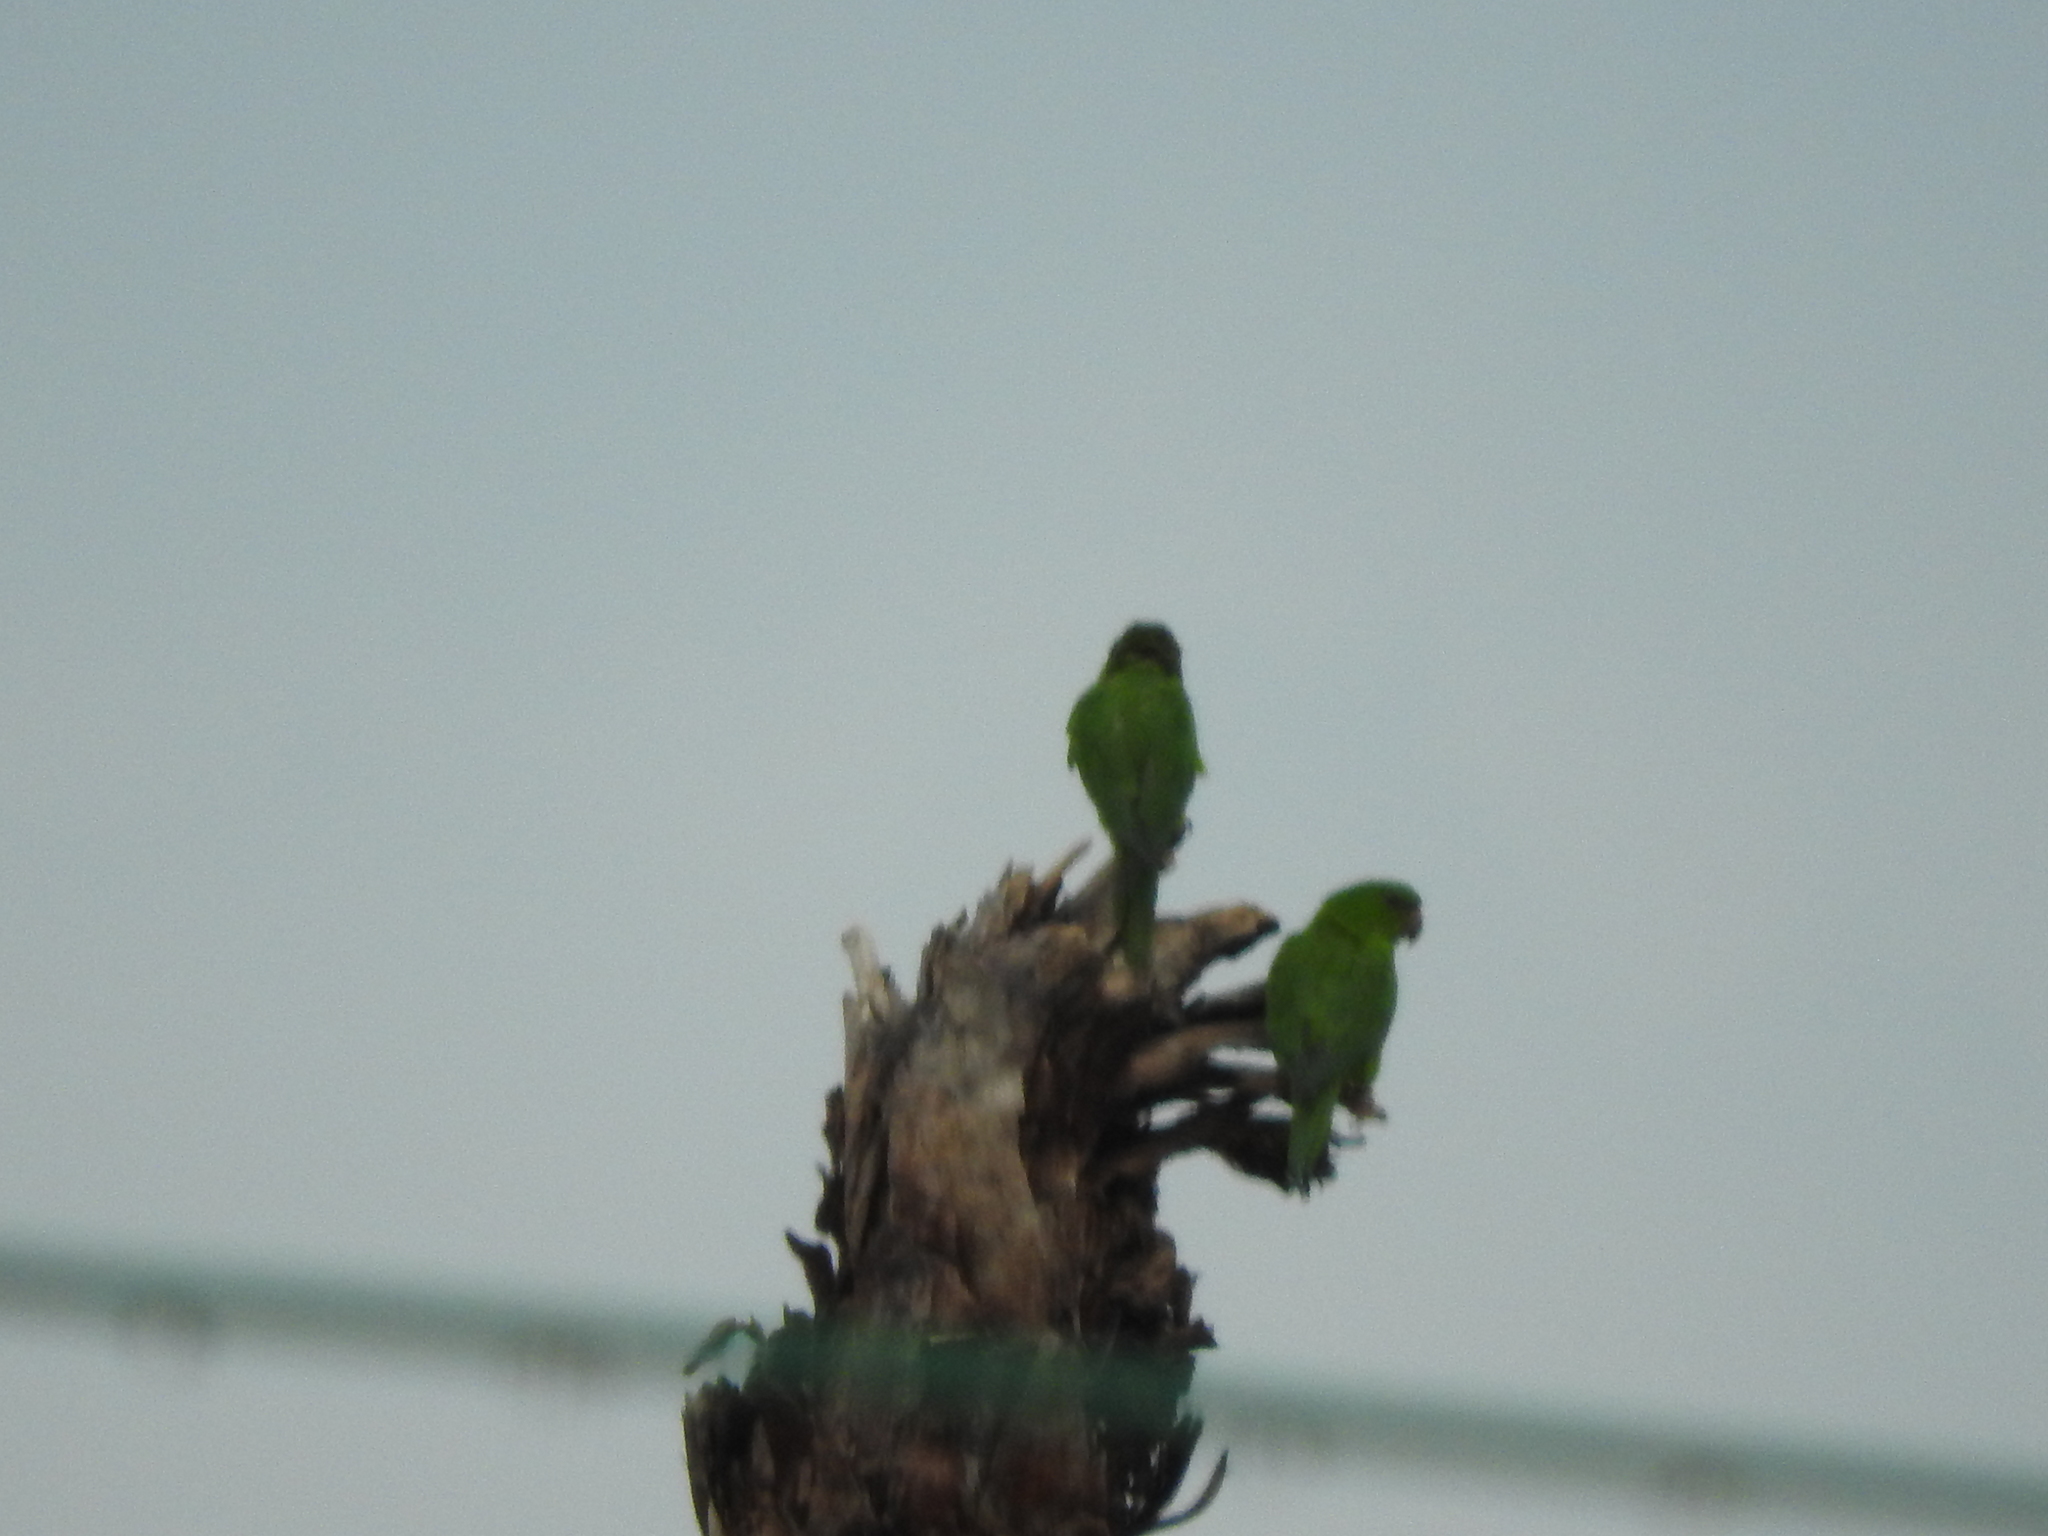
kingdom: Animalia
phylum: Chordata
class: Aves
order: Psittaciformes
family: Psittacidae
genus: Aratinga
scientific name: Aratinga holochlora
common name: Green parakeet
